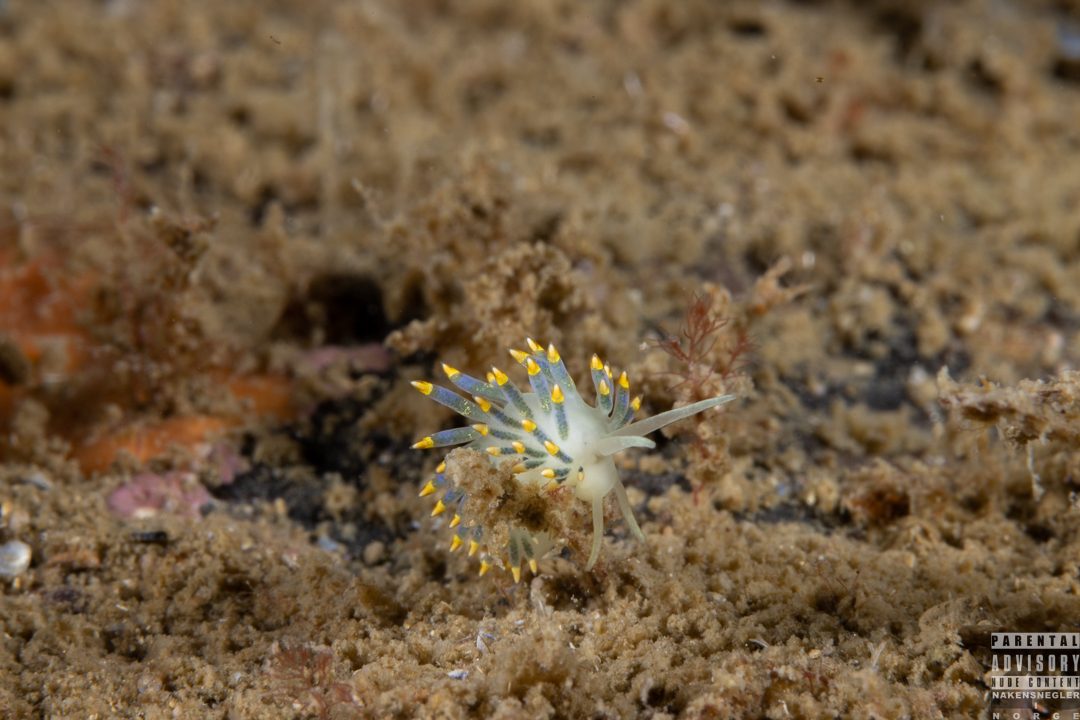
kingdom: Animalia
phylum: Mollusca
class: Gastropoda
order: Nudibranchia
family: Trinchesiidae
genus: Trinchesia
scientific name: Trinchesia cuanensis
